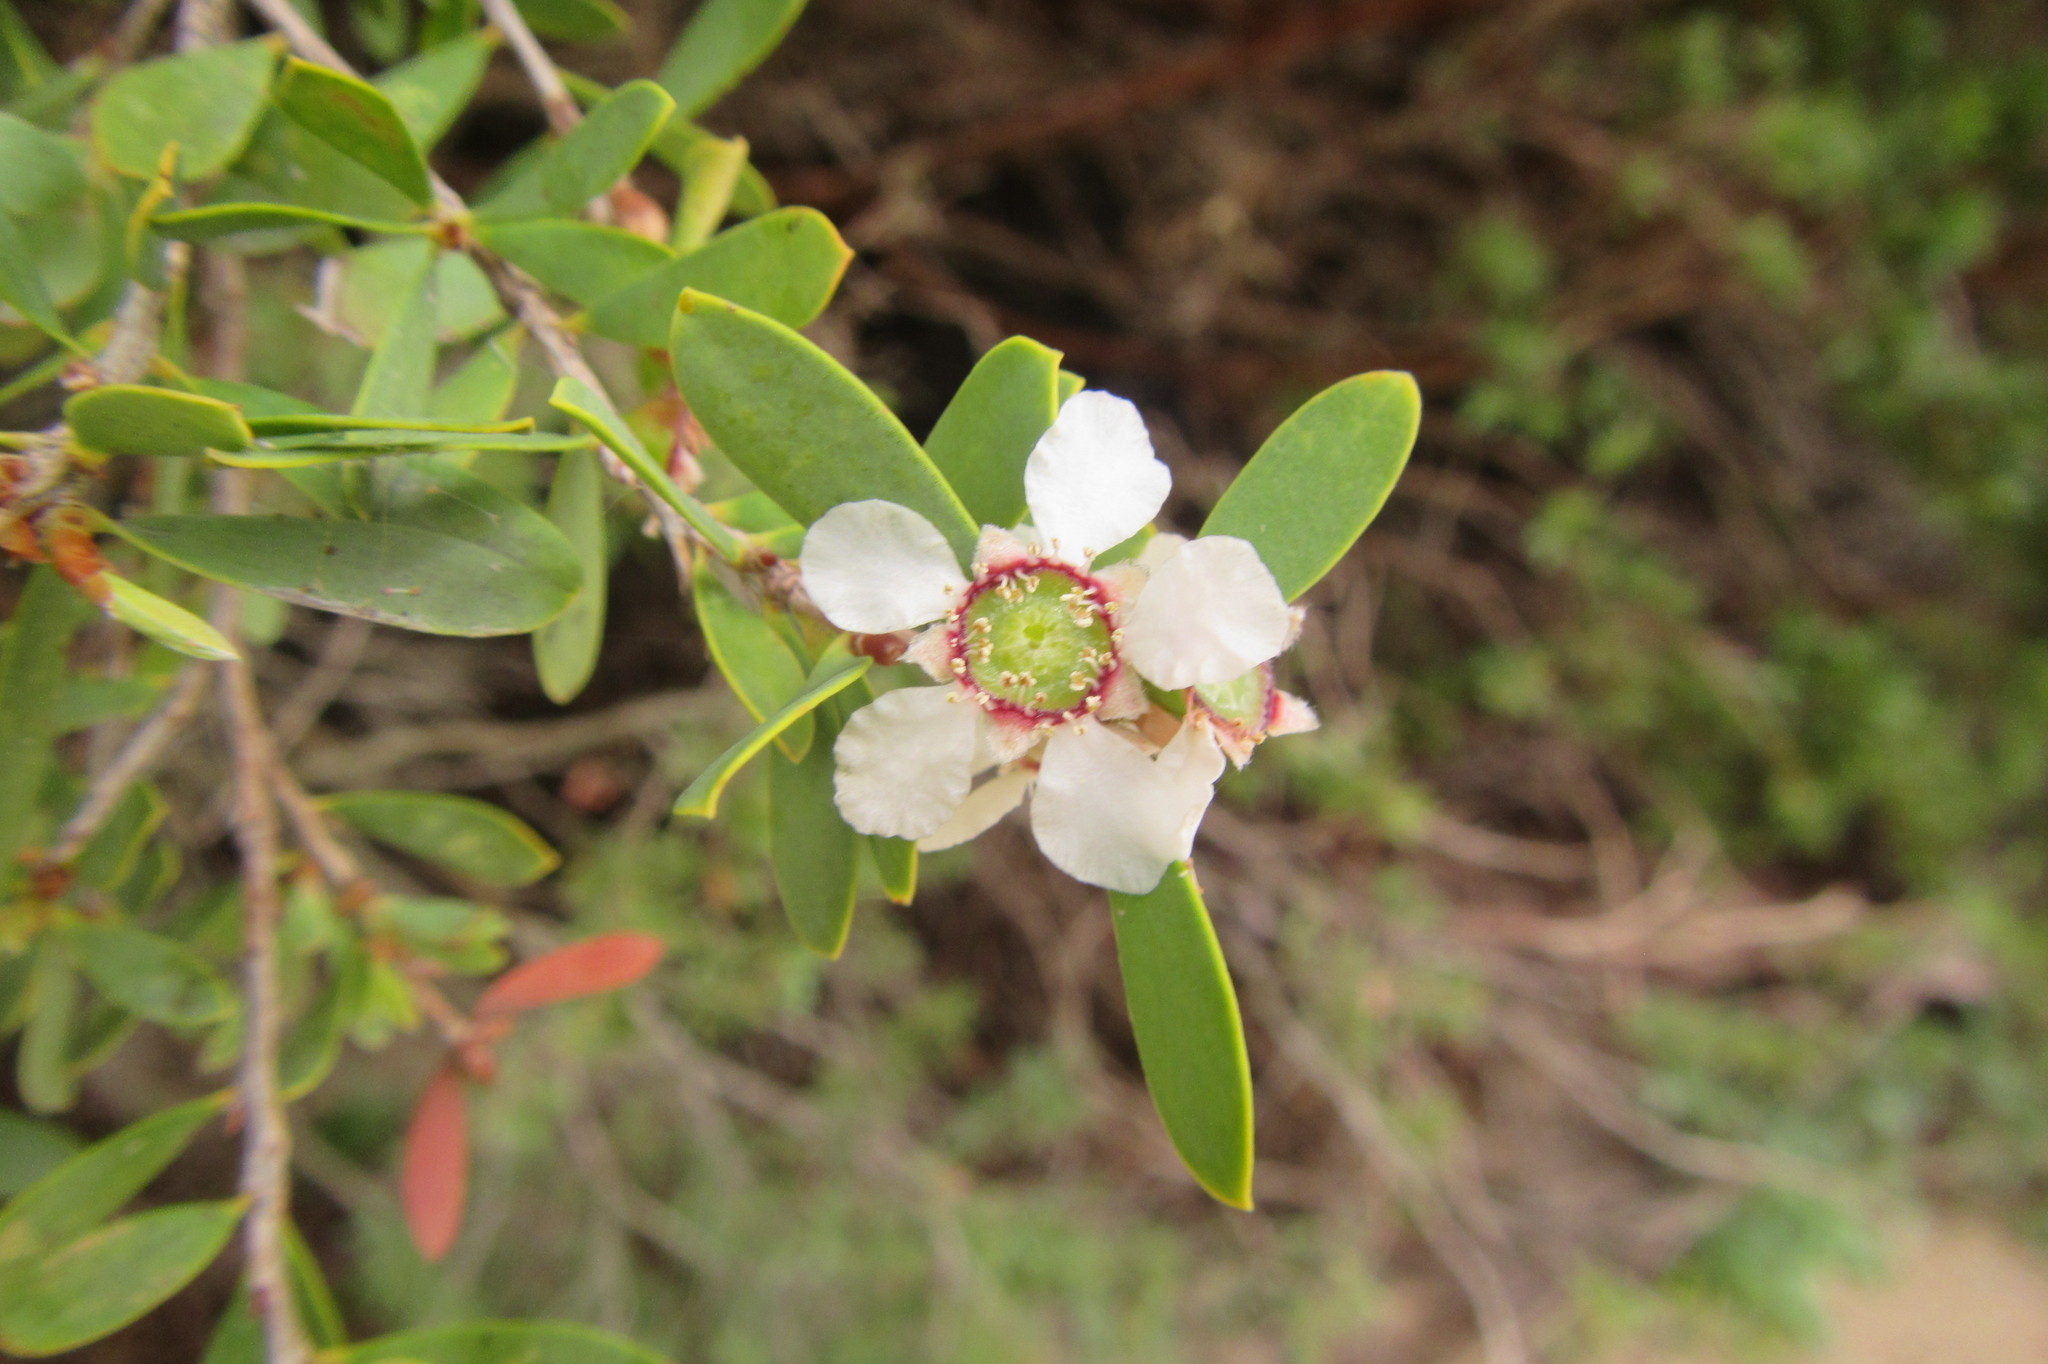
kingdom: Plantae
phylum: Tracheophyta
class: Magnoliopsida
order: Myrtales
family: Myrtaceae
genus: Leptospermum
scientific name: Leptospermum laevigatum
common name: Australian teatree
